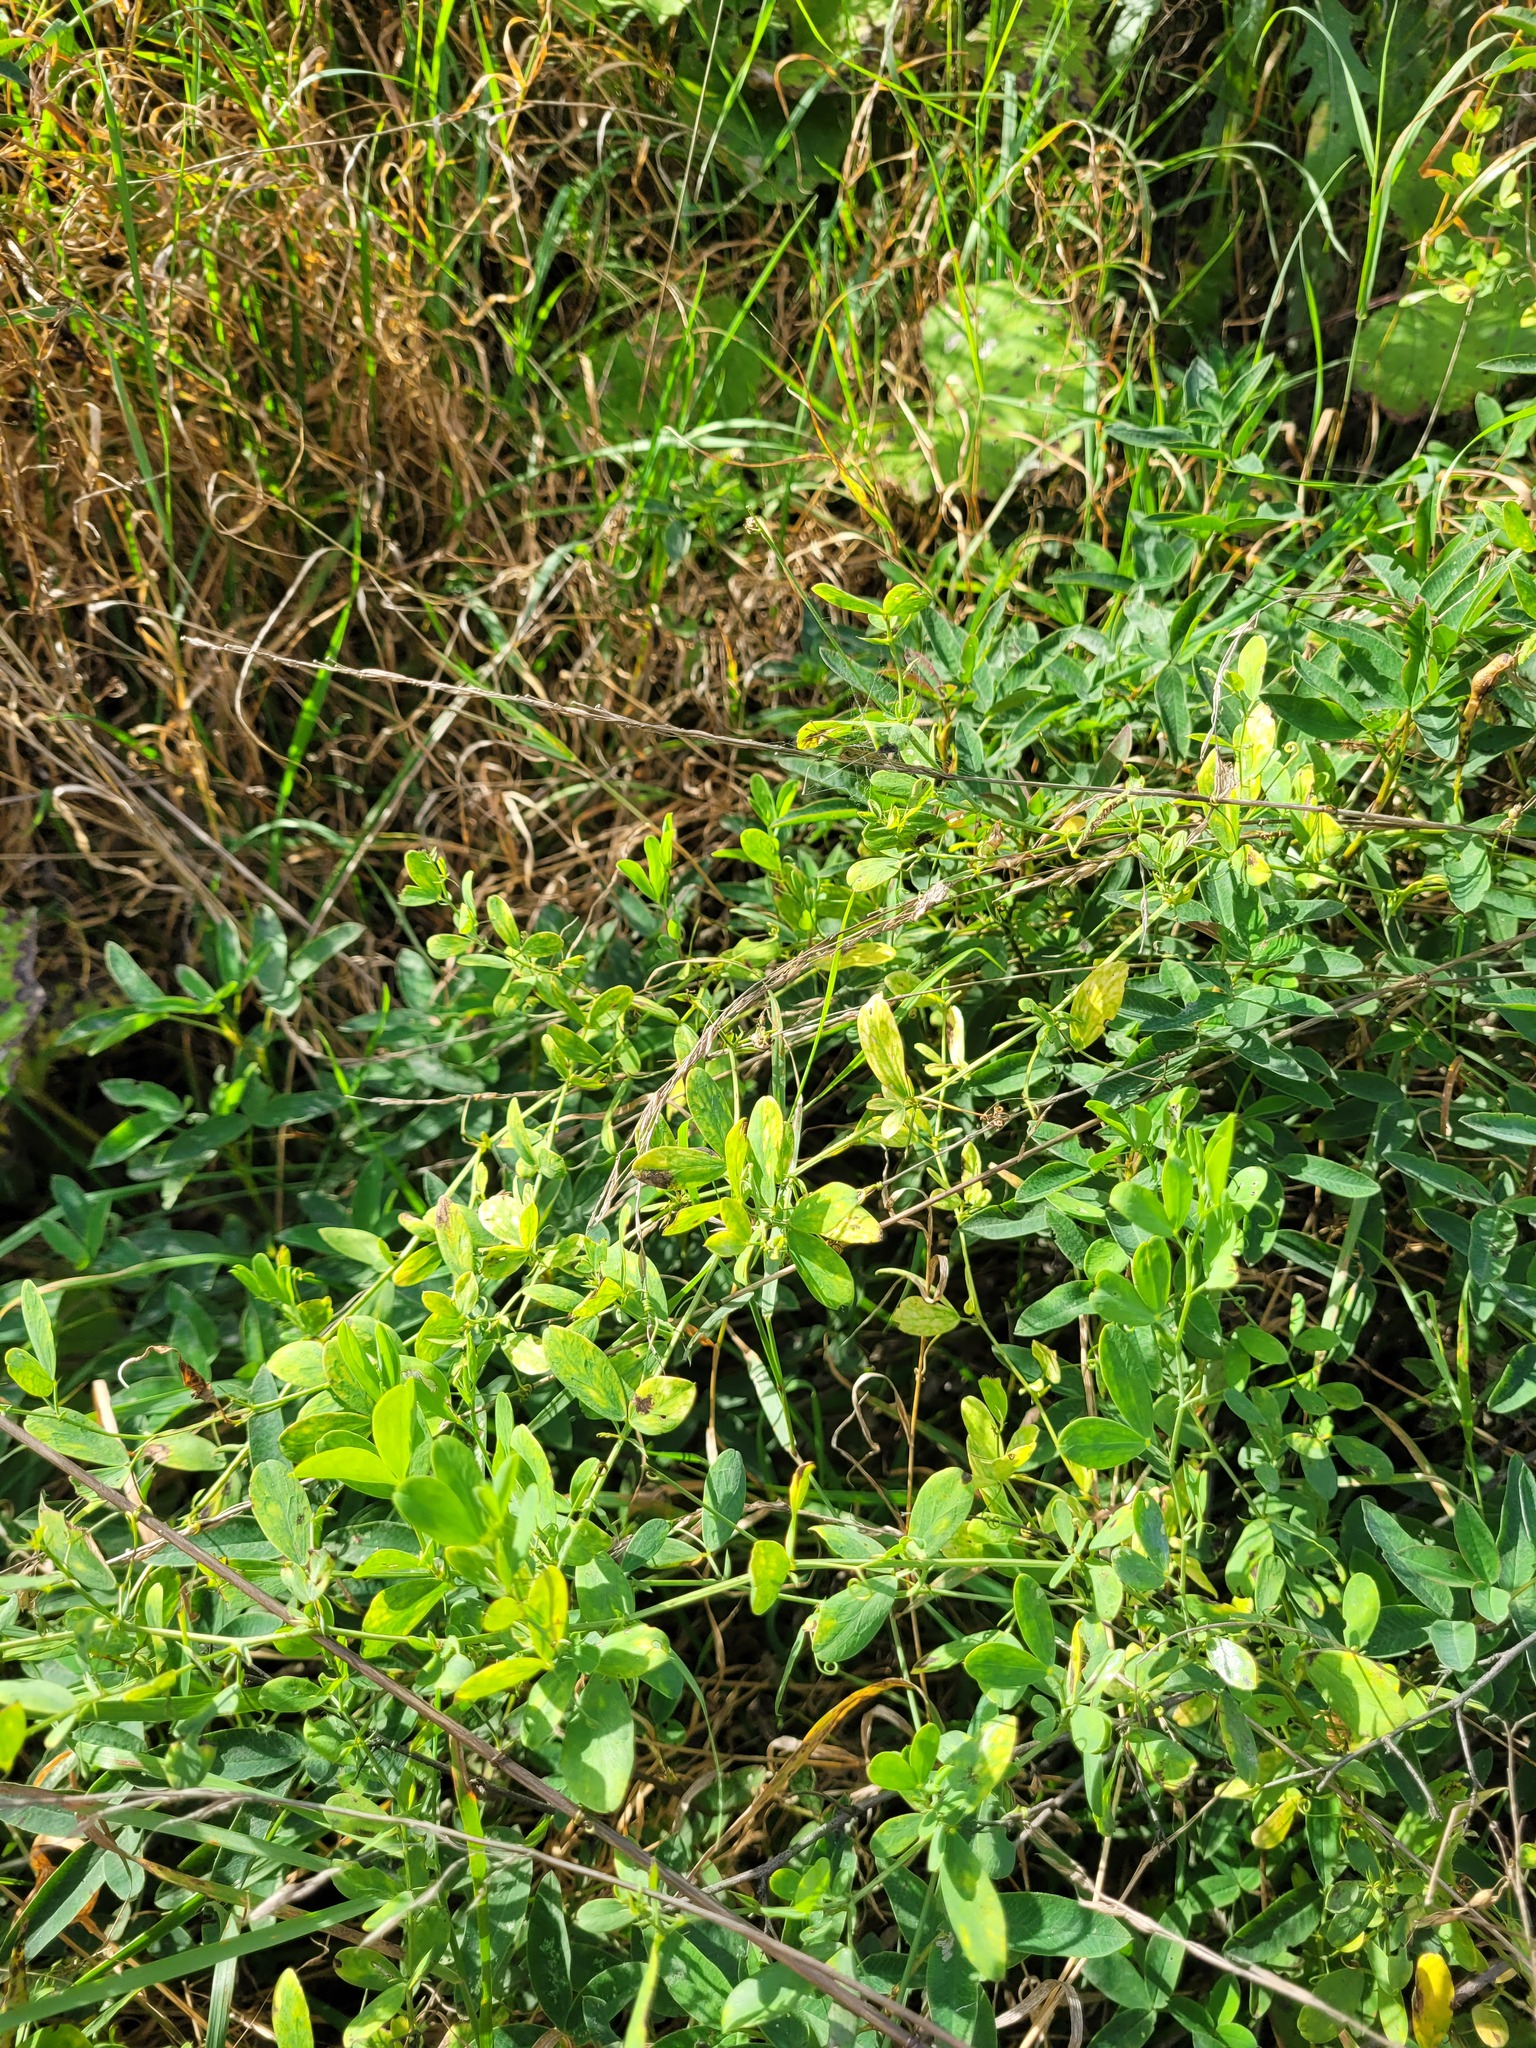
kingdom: Plantae
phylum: Tracheophyta
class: Magnoliopsida
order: Fabales
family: Fabaceae
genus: Lathyrus
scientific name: Lathyrus tuberosus
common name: Tuberous pea
